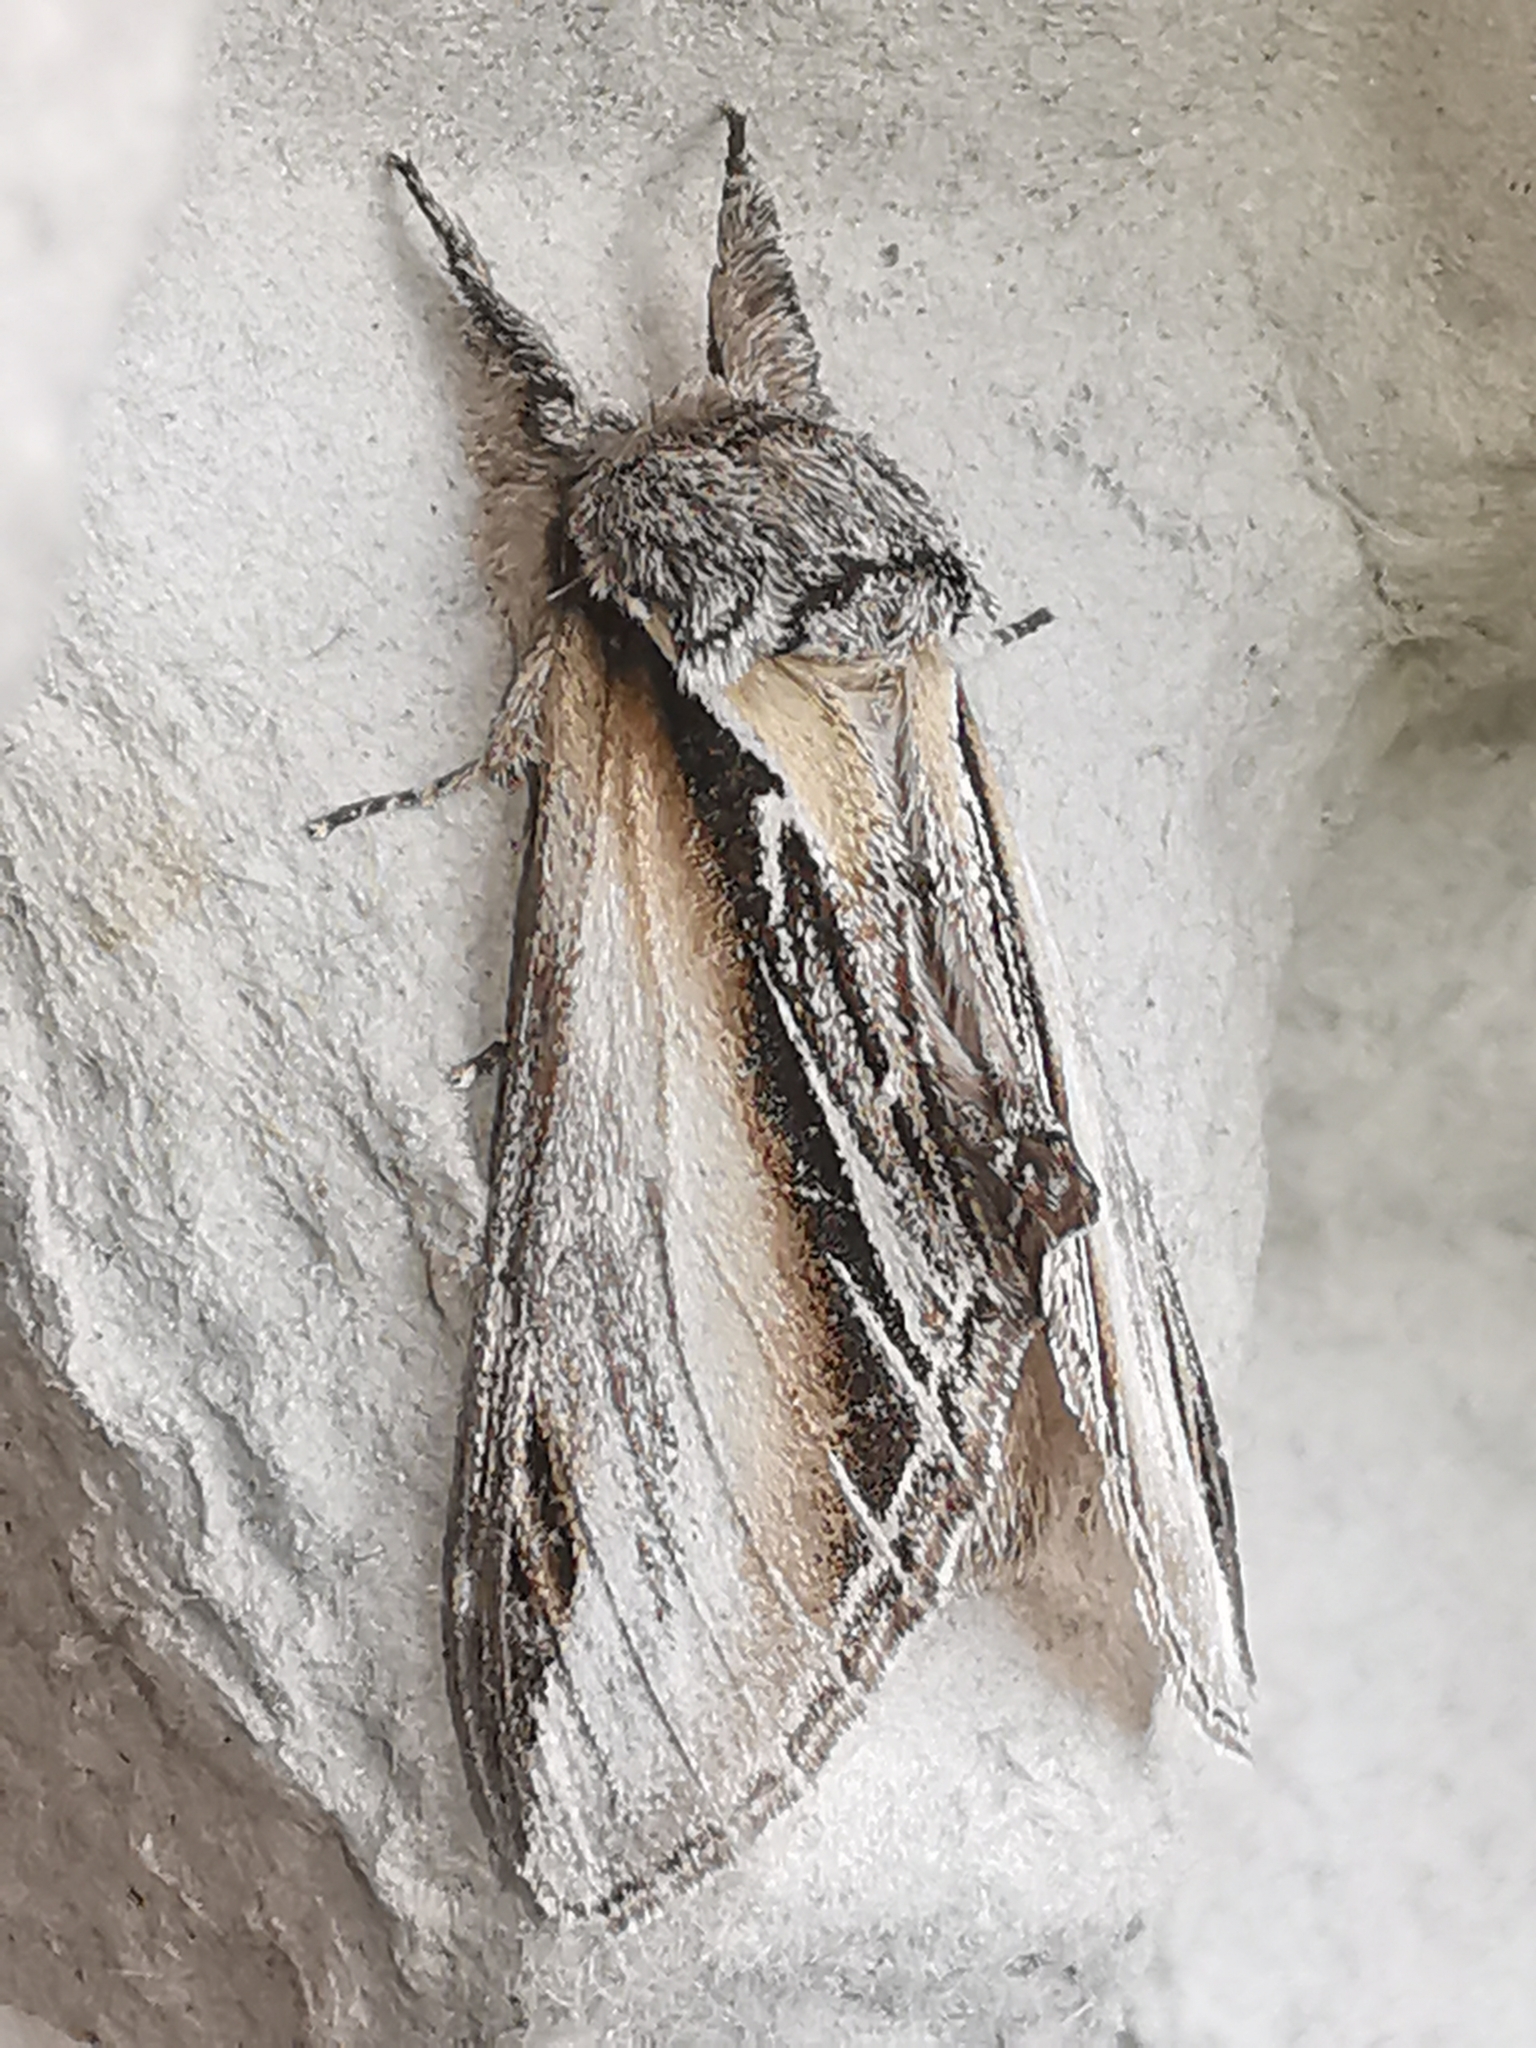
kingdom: Animalia
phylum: Arthropoda
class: Insecta
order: Lepidoptera
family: Notodontidae
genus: Pheosia
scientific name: Pheosia tremula
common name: Swallow prominent
